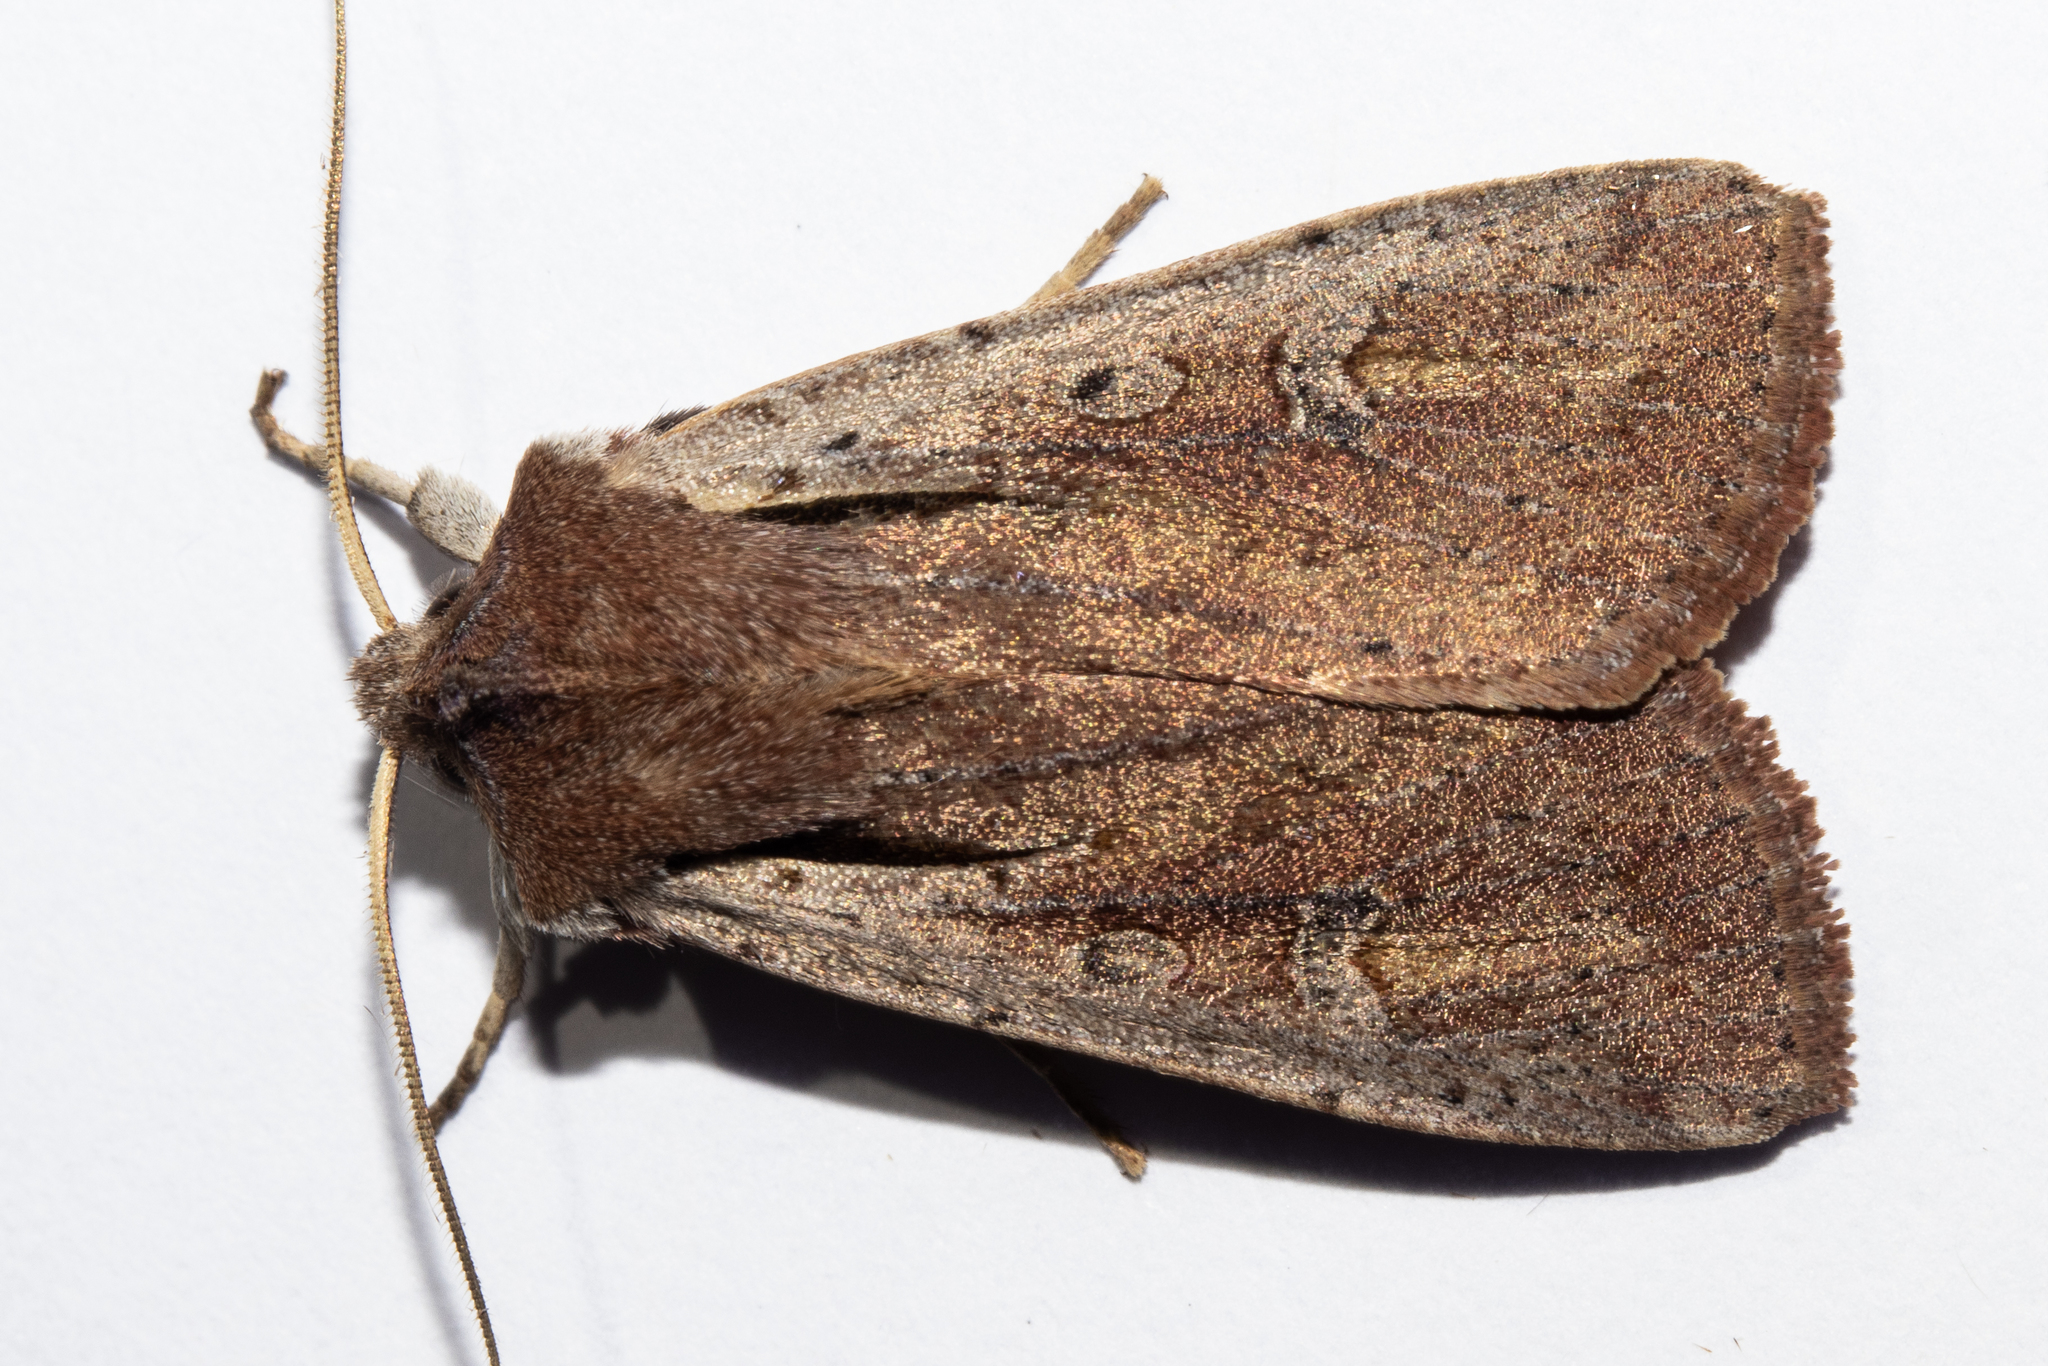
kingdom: Animalia
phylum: Arthropoda
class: Insecta
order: Lepidoptera
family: Noctuidae
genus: Ichneutica
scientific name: Ichneutica atristriga
